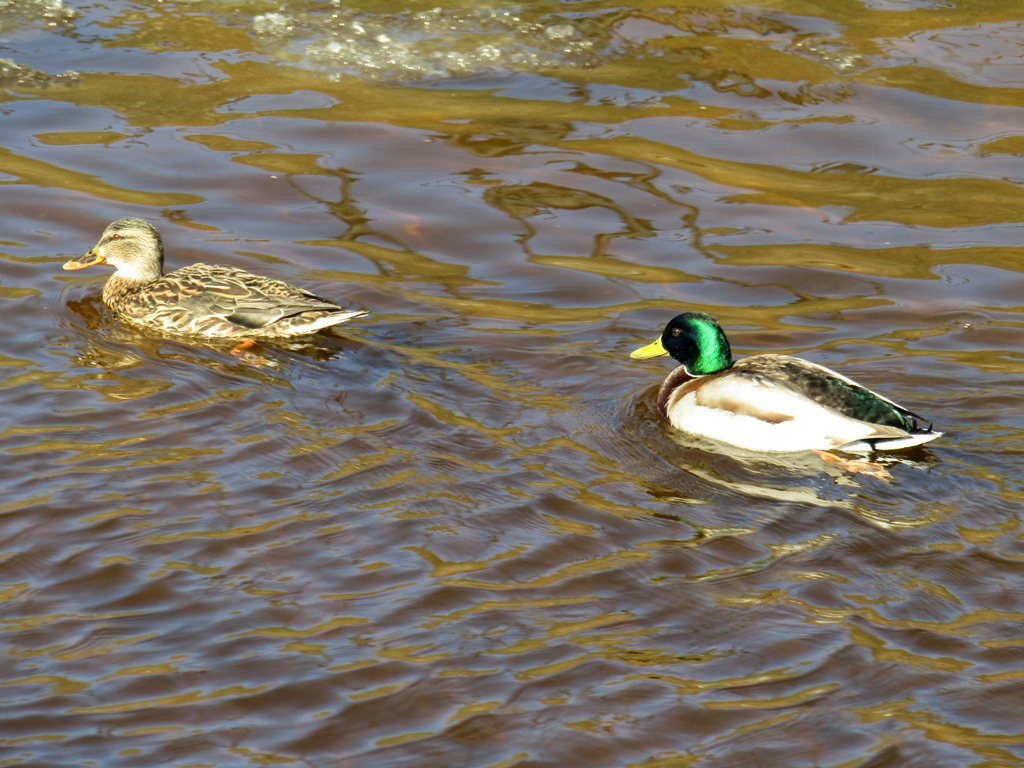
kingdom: Animalia
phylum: Chordata
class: Aves
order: Anseriformes
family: Anatidae
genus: Anas
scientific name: Anas platyrhynchos
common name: Mallard
